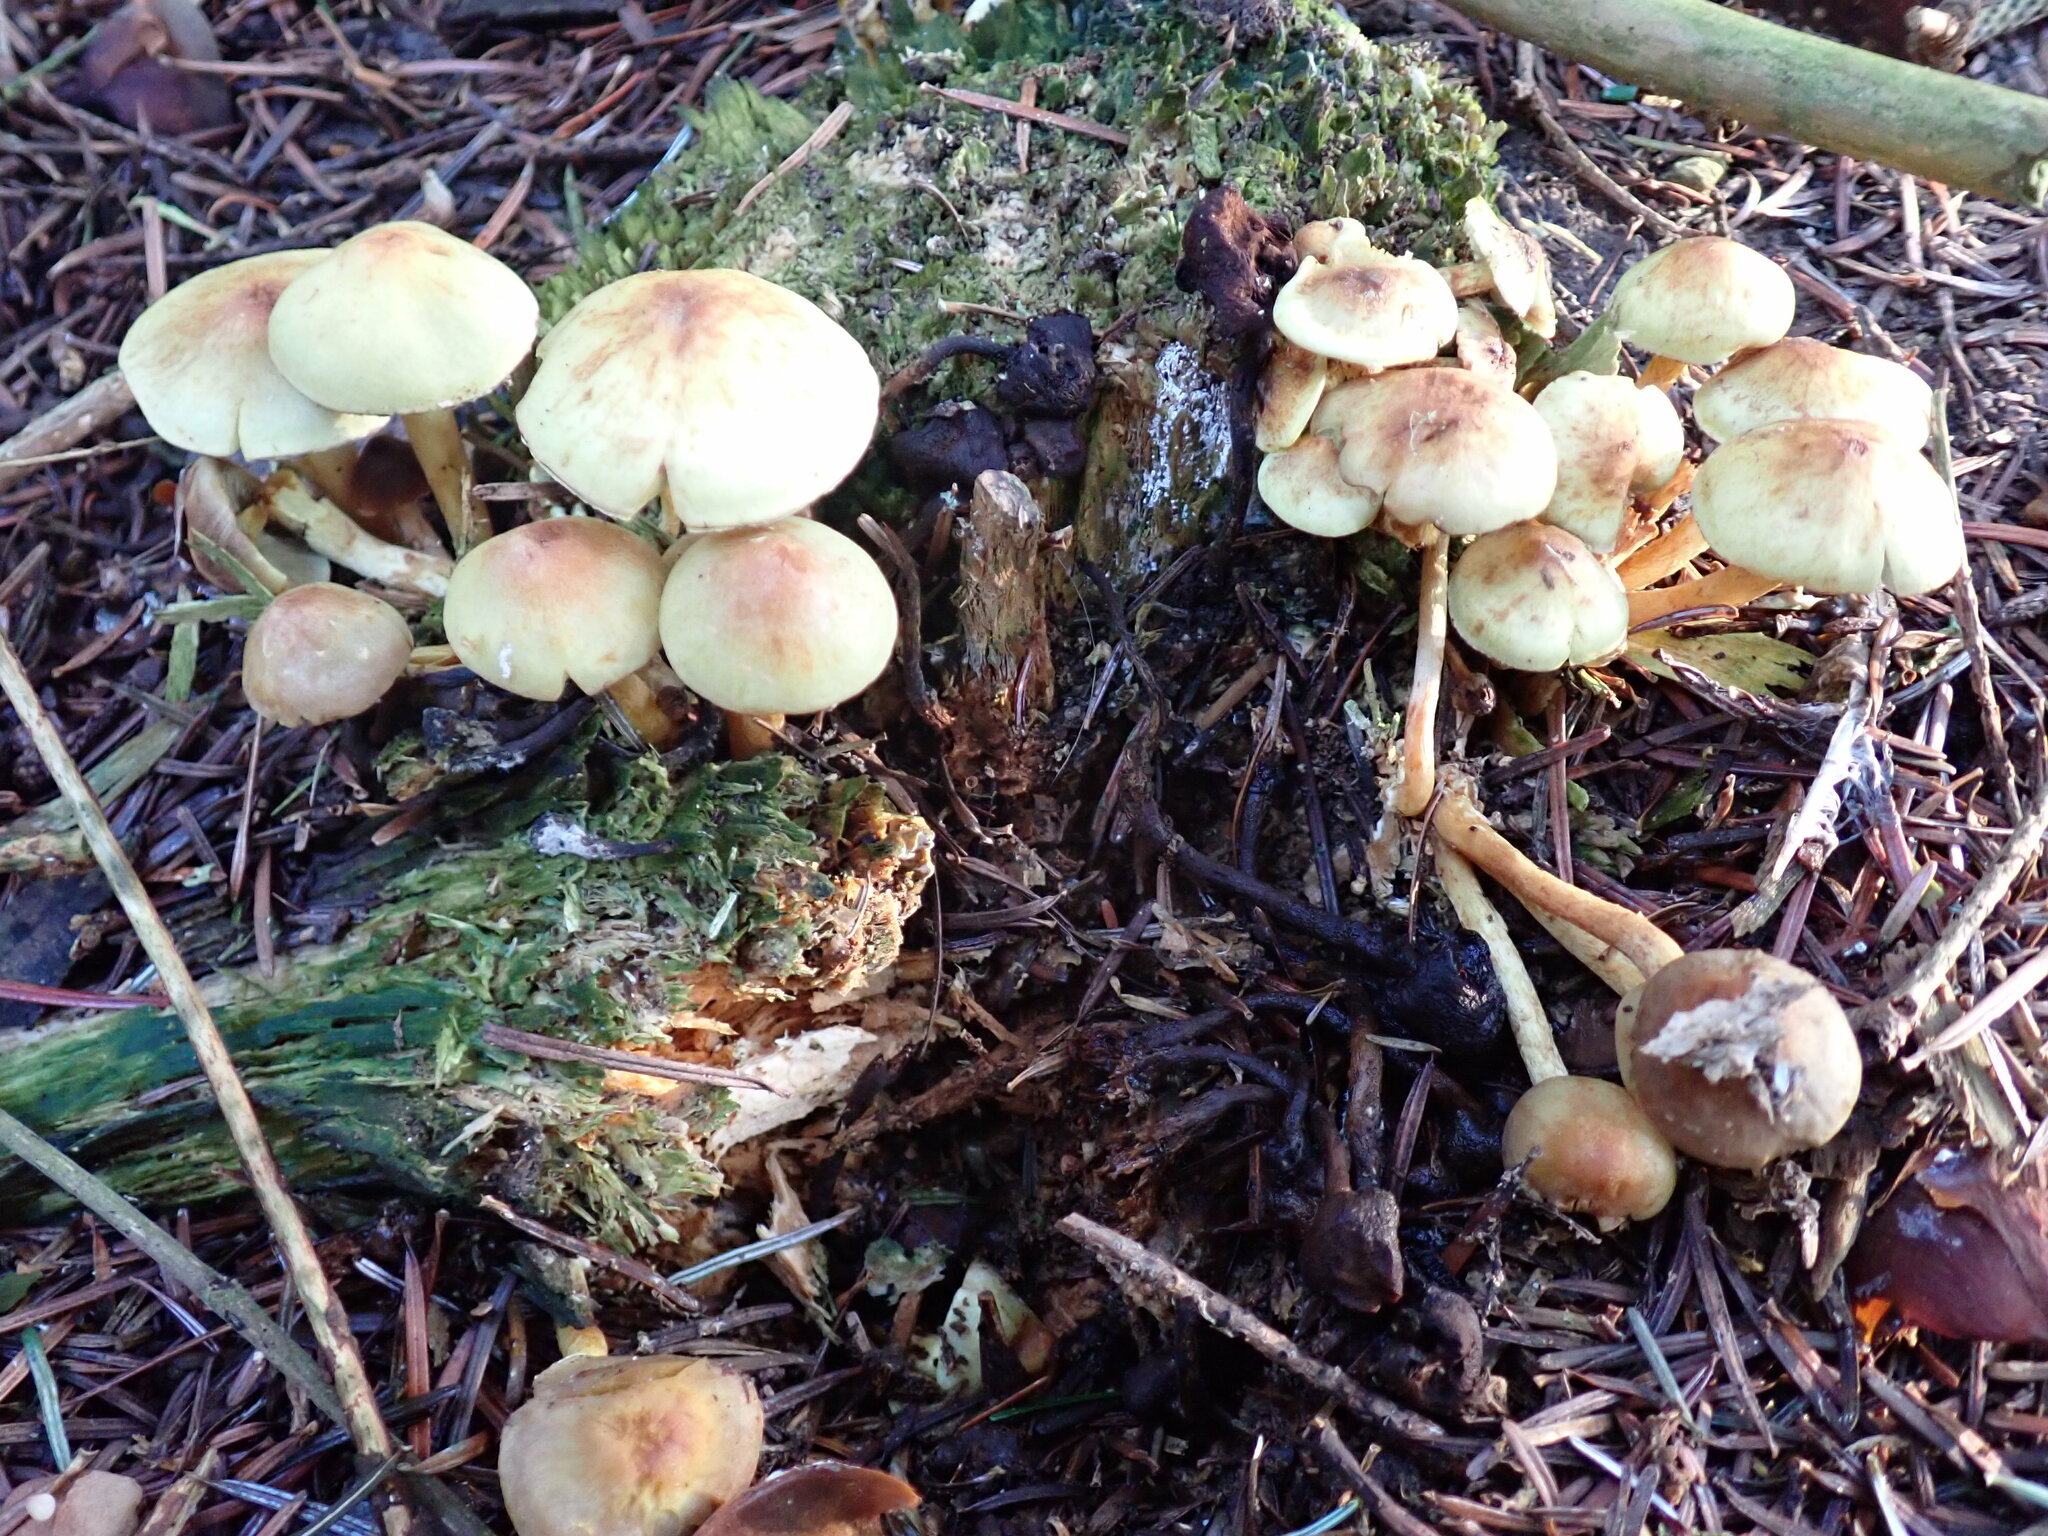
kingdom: Fungi
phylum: Basidiomycota
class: Agaricomycetes
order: Agaricales
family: Strophariaceae
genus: Hypholoma
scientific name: Hypholoma fasciculare
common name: Sulphur tuft
